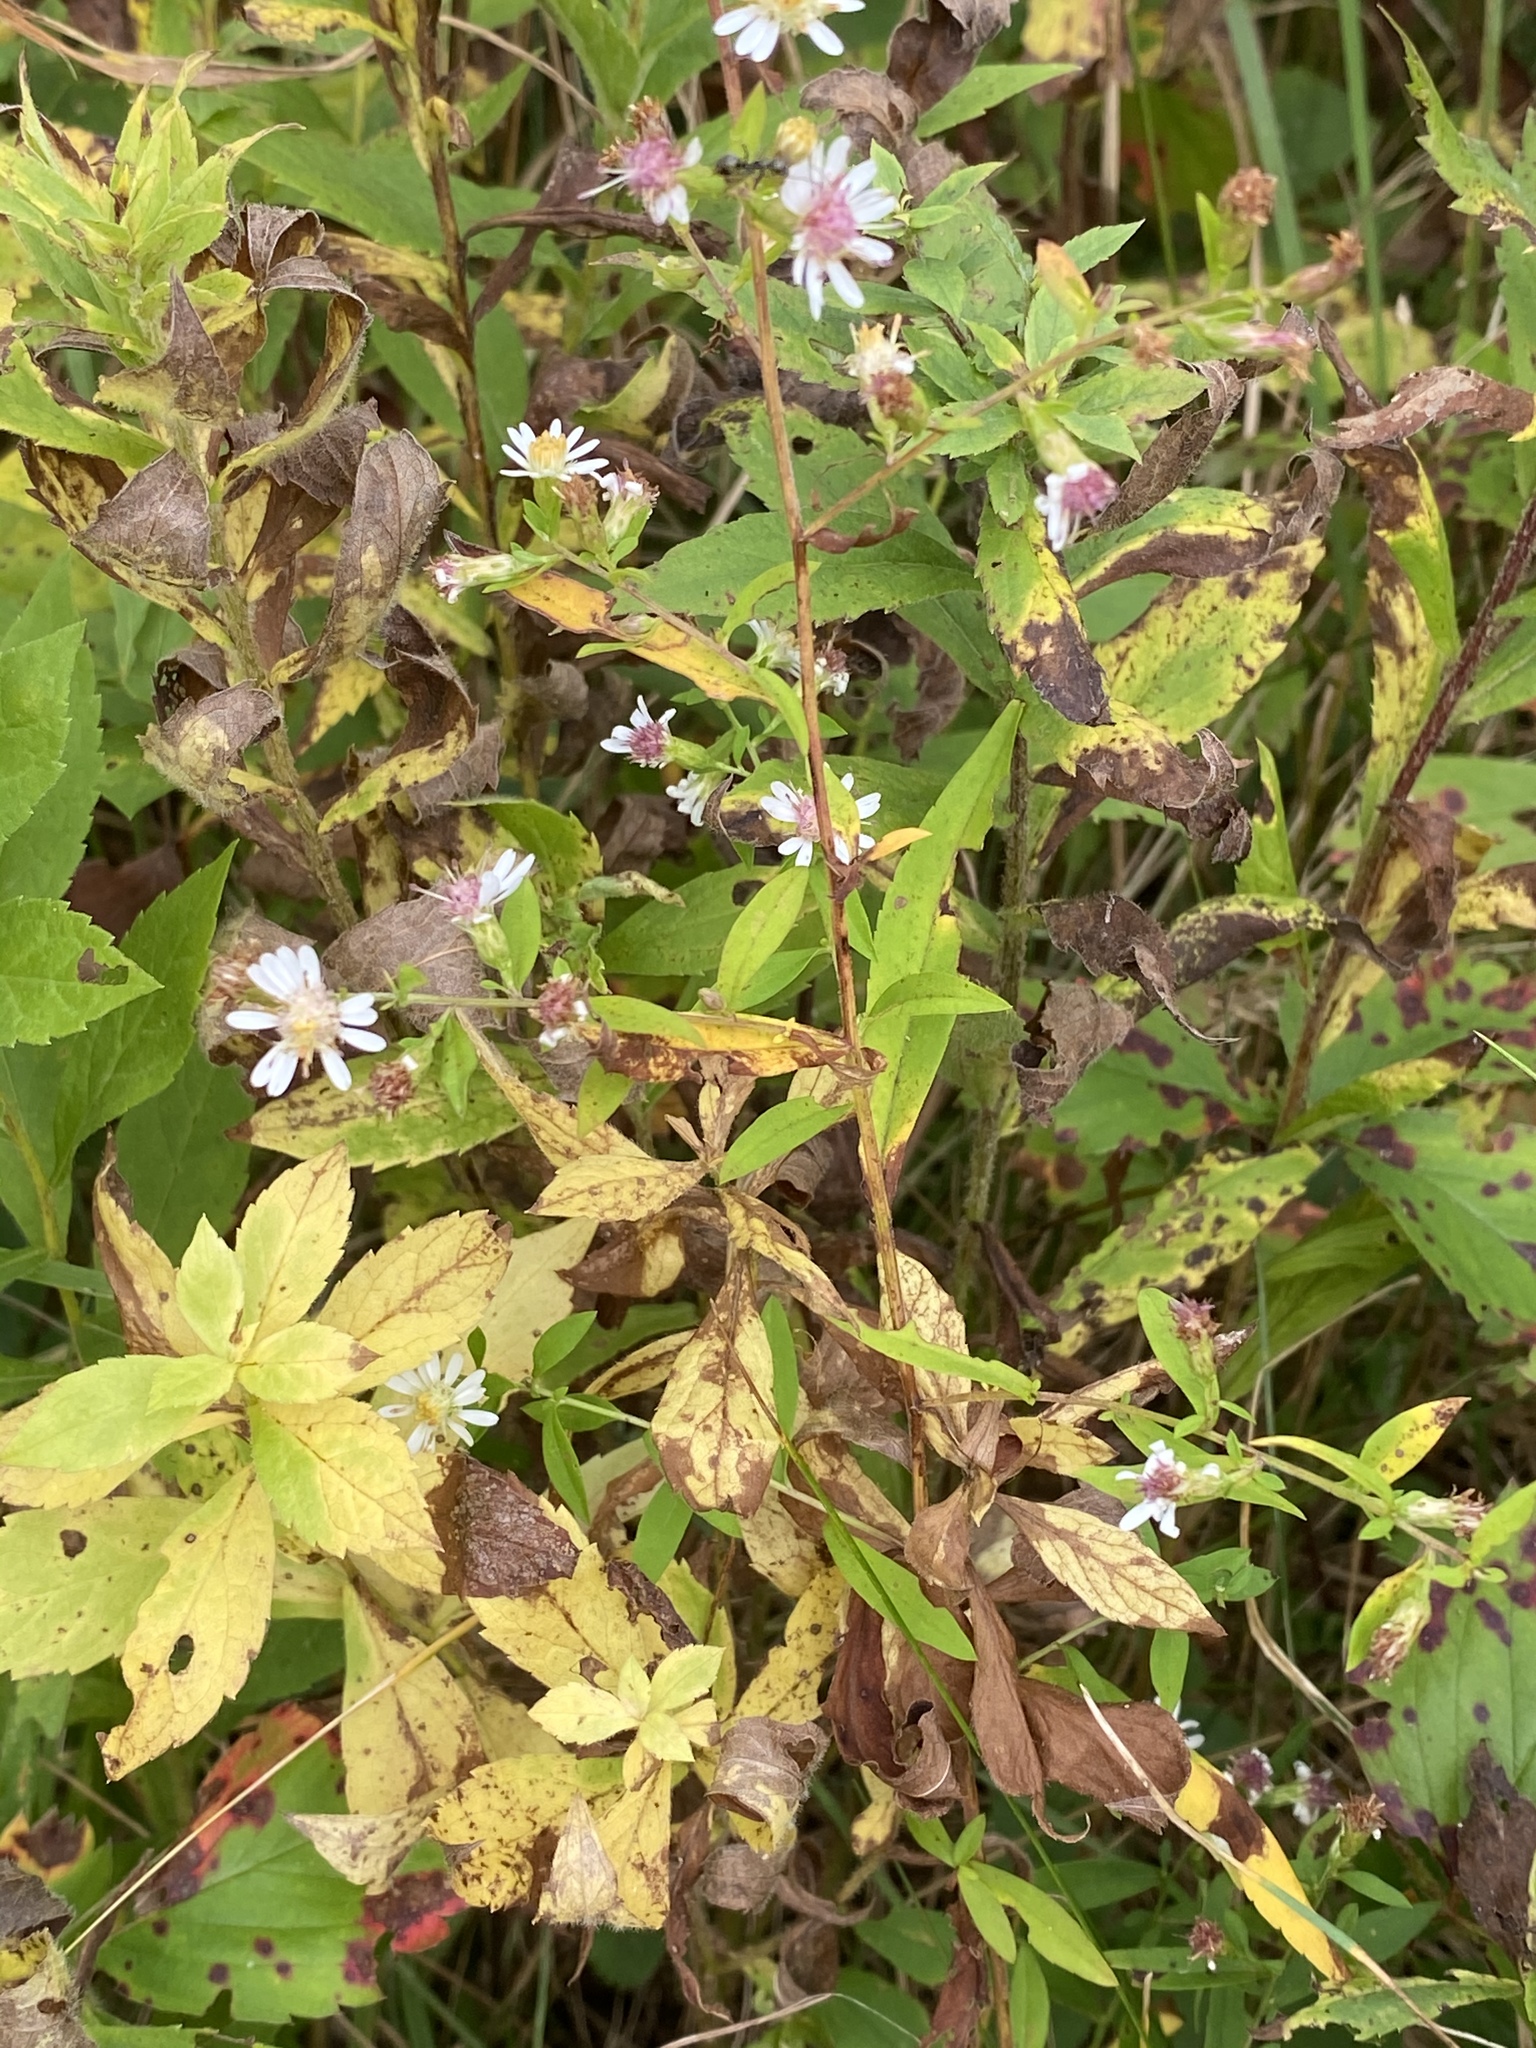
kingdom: Plantae
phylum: Tracheophyta
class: Magnoliopsida
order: Asterales
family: Asteraceae
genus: Symphyotrichum
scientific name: Symphyotrichum lateriflorum
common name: Calico aster
